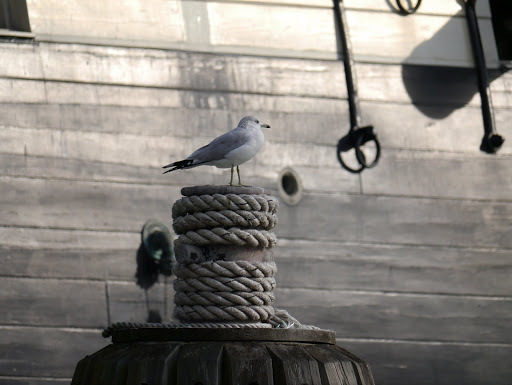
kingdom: Animalia
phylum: Chordata
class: Aves
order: Charadriiformes
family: Laridae
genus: Larus
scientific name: Larus delawarensis
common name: Ring-billed gull
